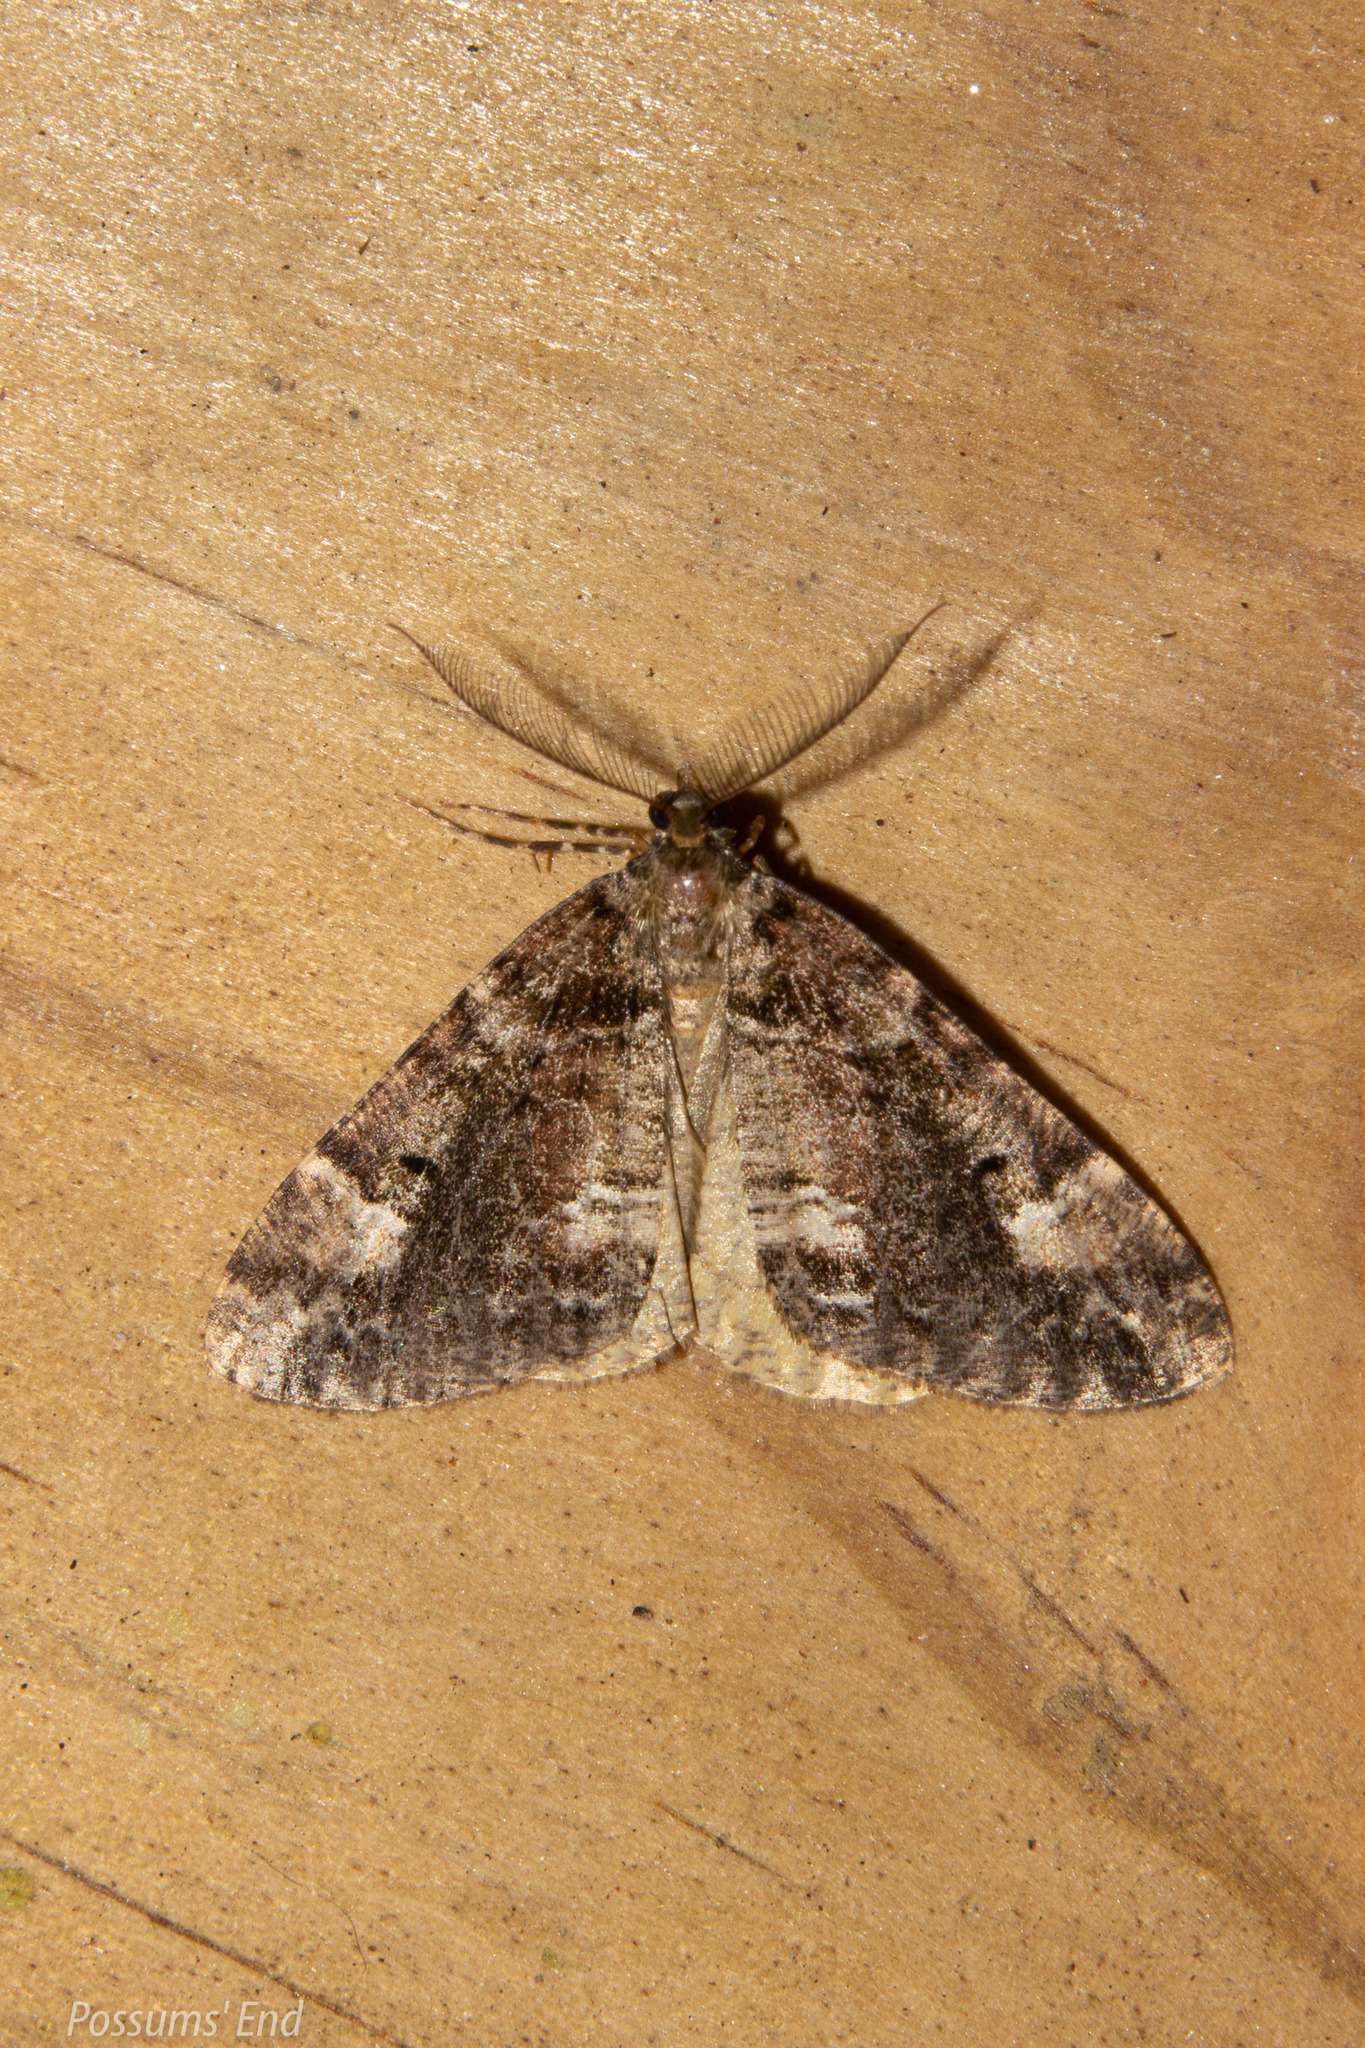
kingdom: Animalia
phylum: Arthropoda
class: Insecta
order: Lepidoptera
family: Geometridae
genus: Pseudocoremia
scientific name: Pseudocoremia productata
